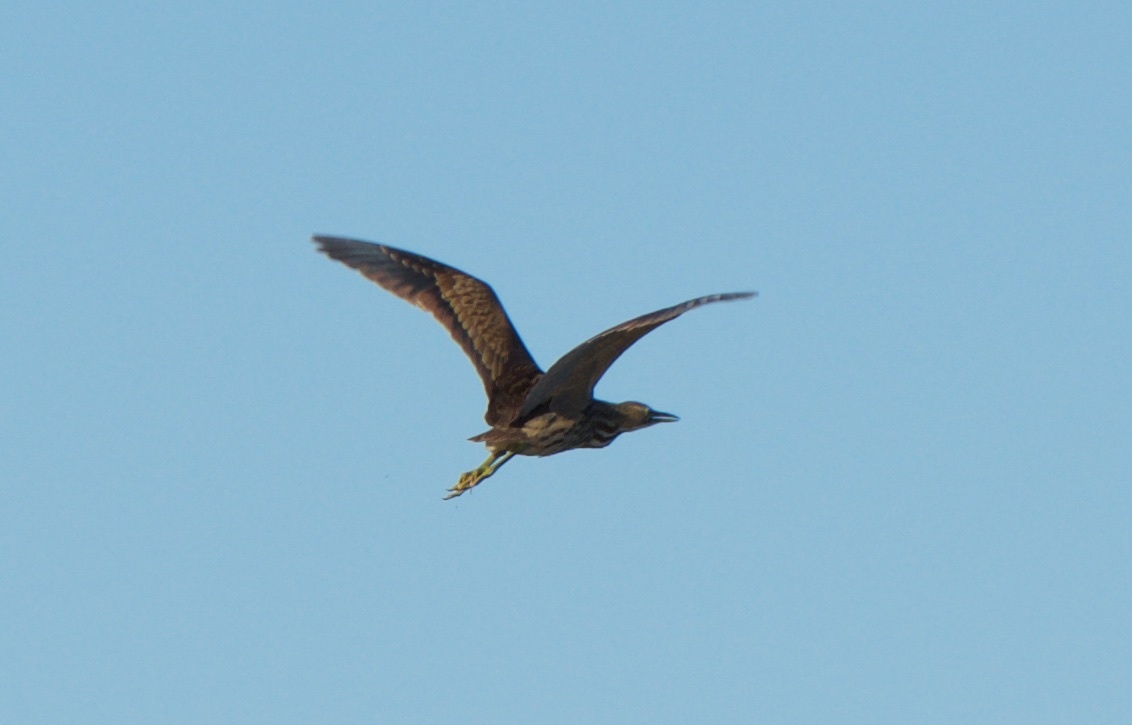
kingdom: Animalia
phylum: Chordata
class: Aves
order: Pelecaniformes
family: Ardeidae
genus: Botaurus
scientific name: Botaurus lentiginosus
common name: American bittern
